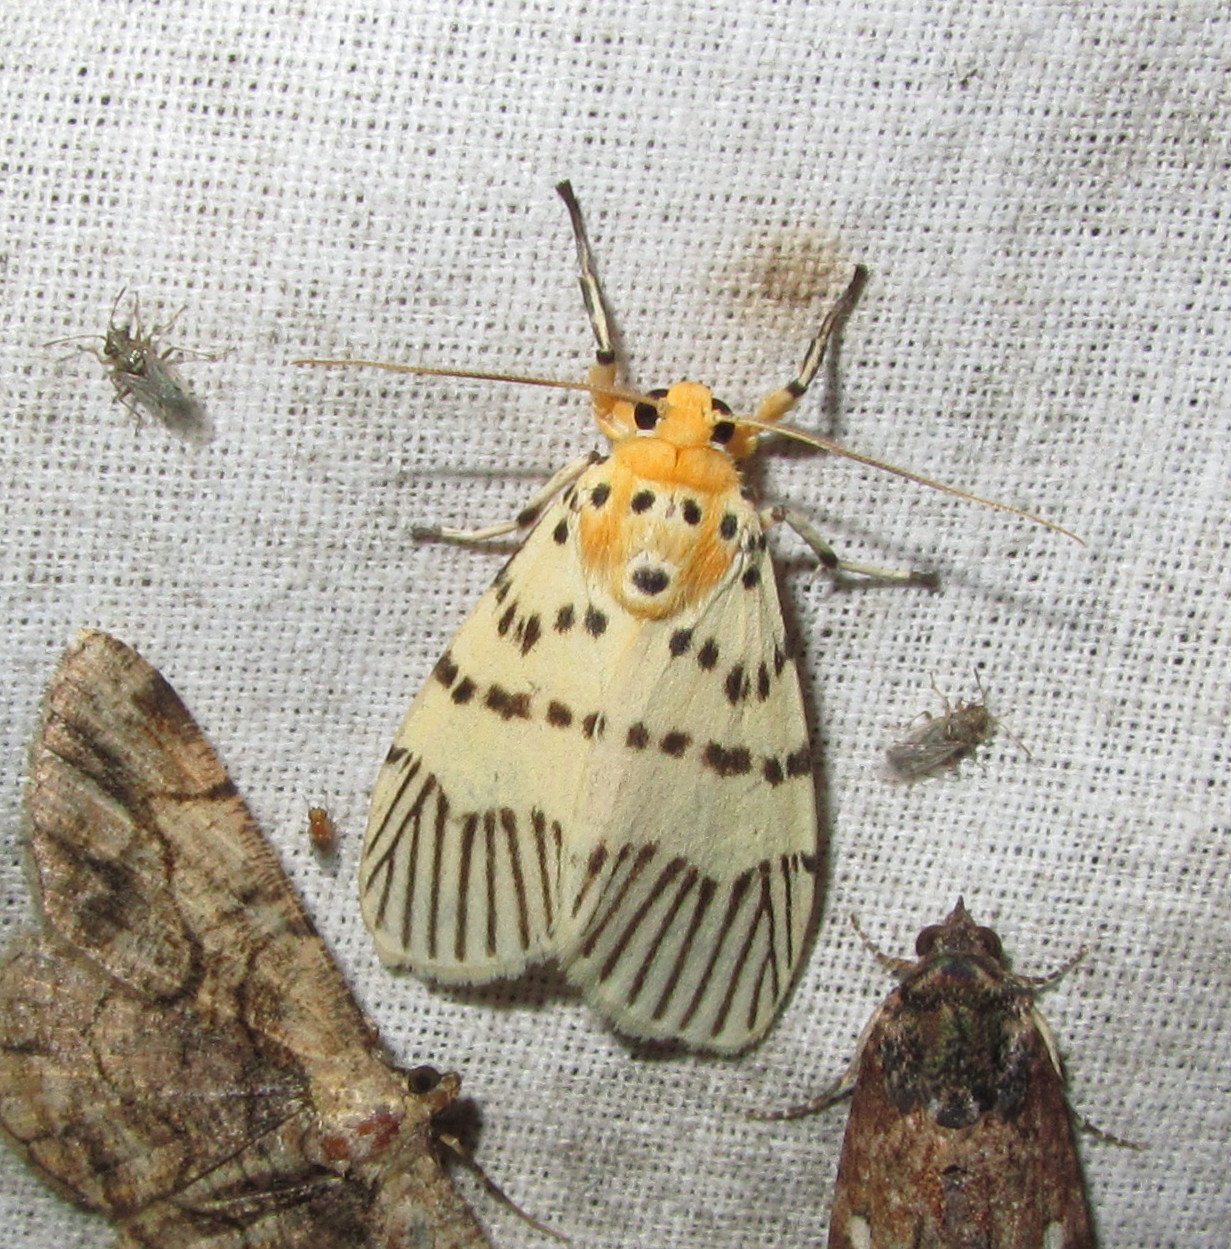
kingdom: Animalia
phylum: Arthropoda
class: Insecta
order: Lepidoptera
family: Erebidae
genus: Barsine
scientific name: Barsine linga
